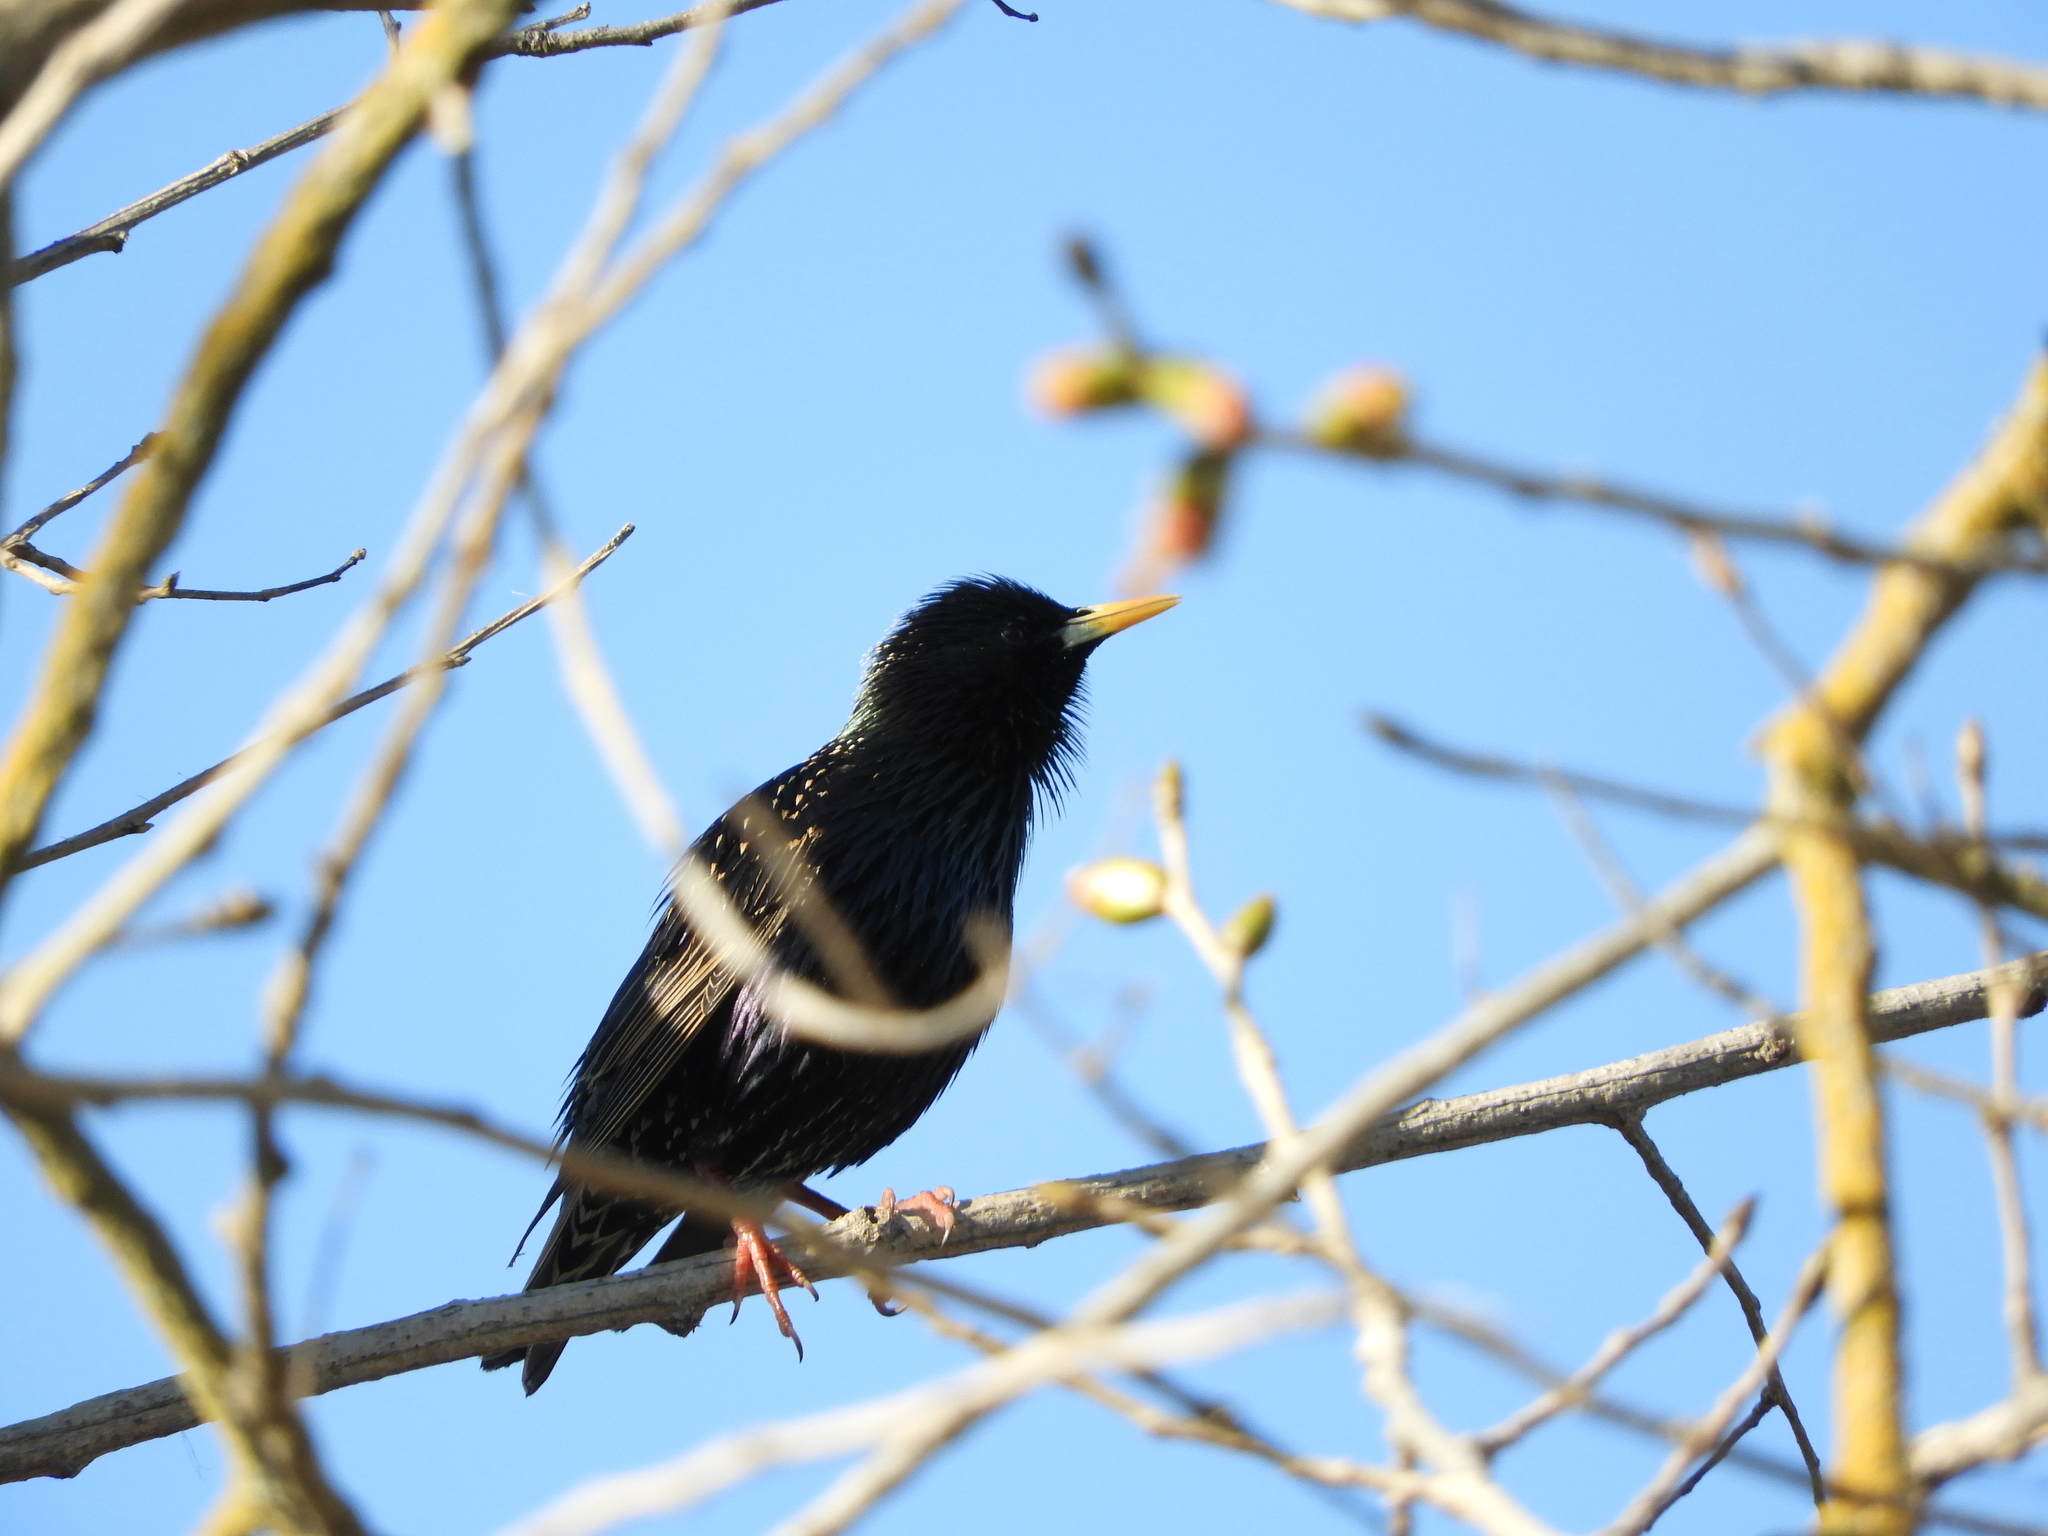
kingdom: Animalia
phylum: Chordata
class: Aves
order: Passeriformes
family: Sturnidae
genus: Sturnus
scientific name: Sturnus vulgaris
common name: Common starling
